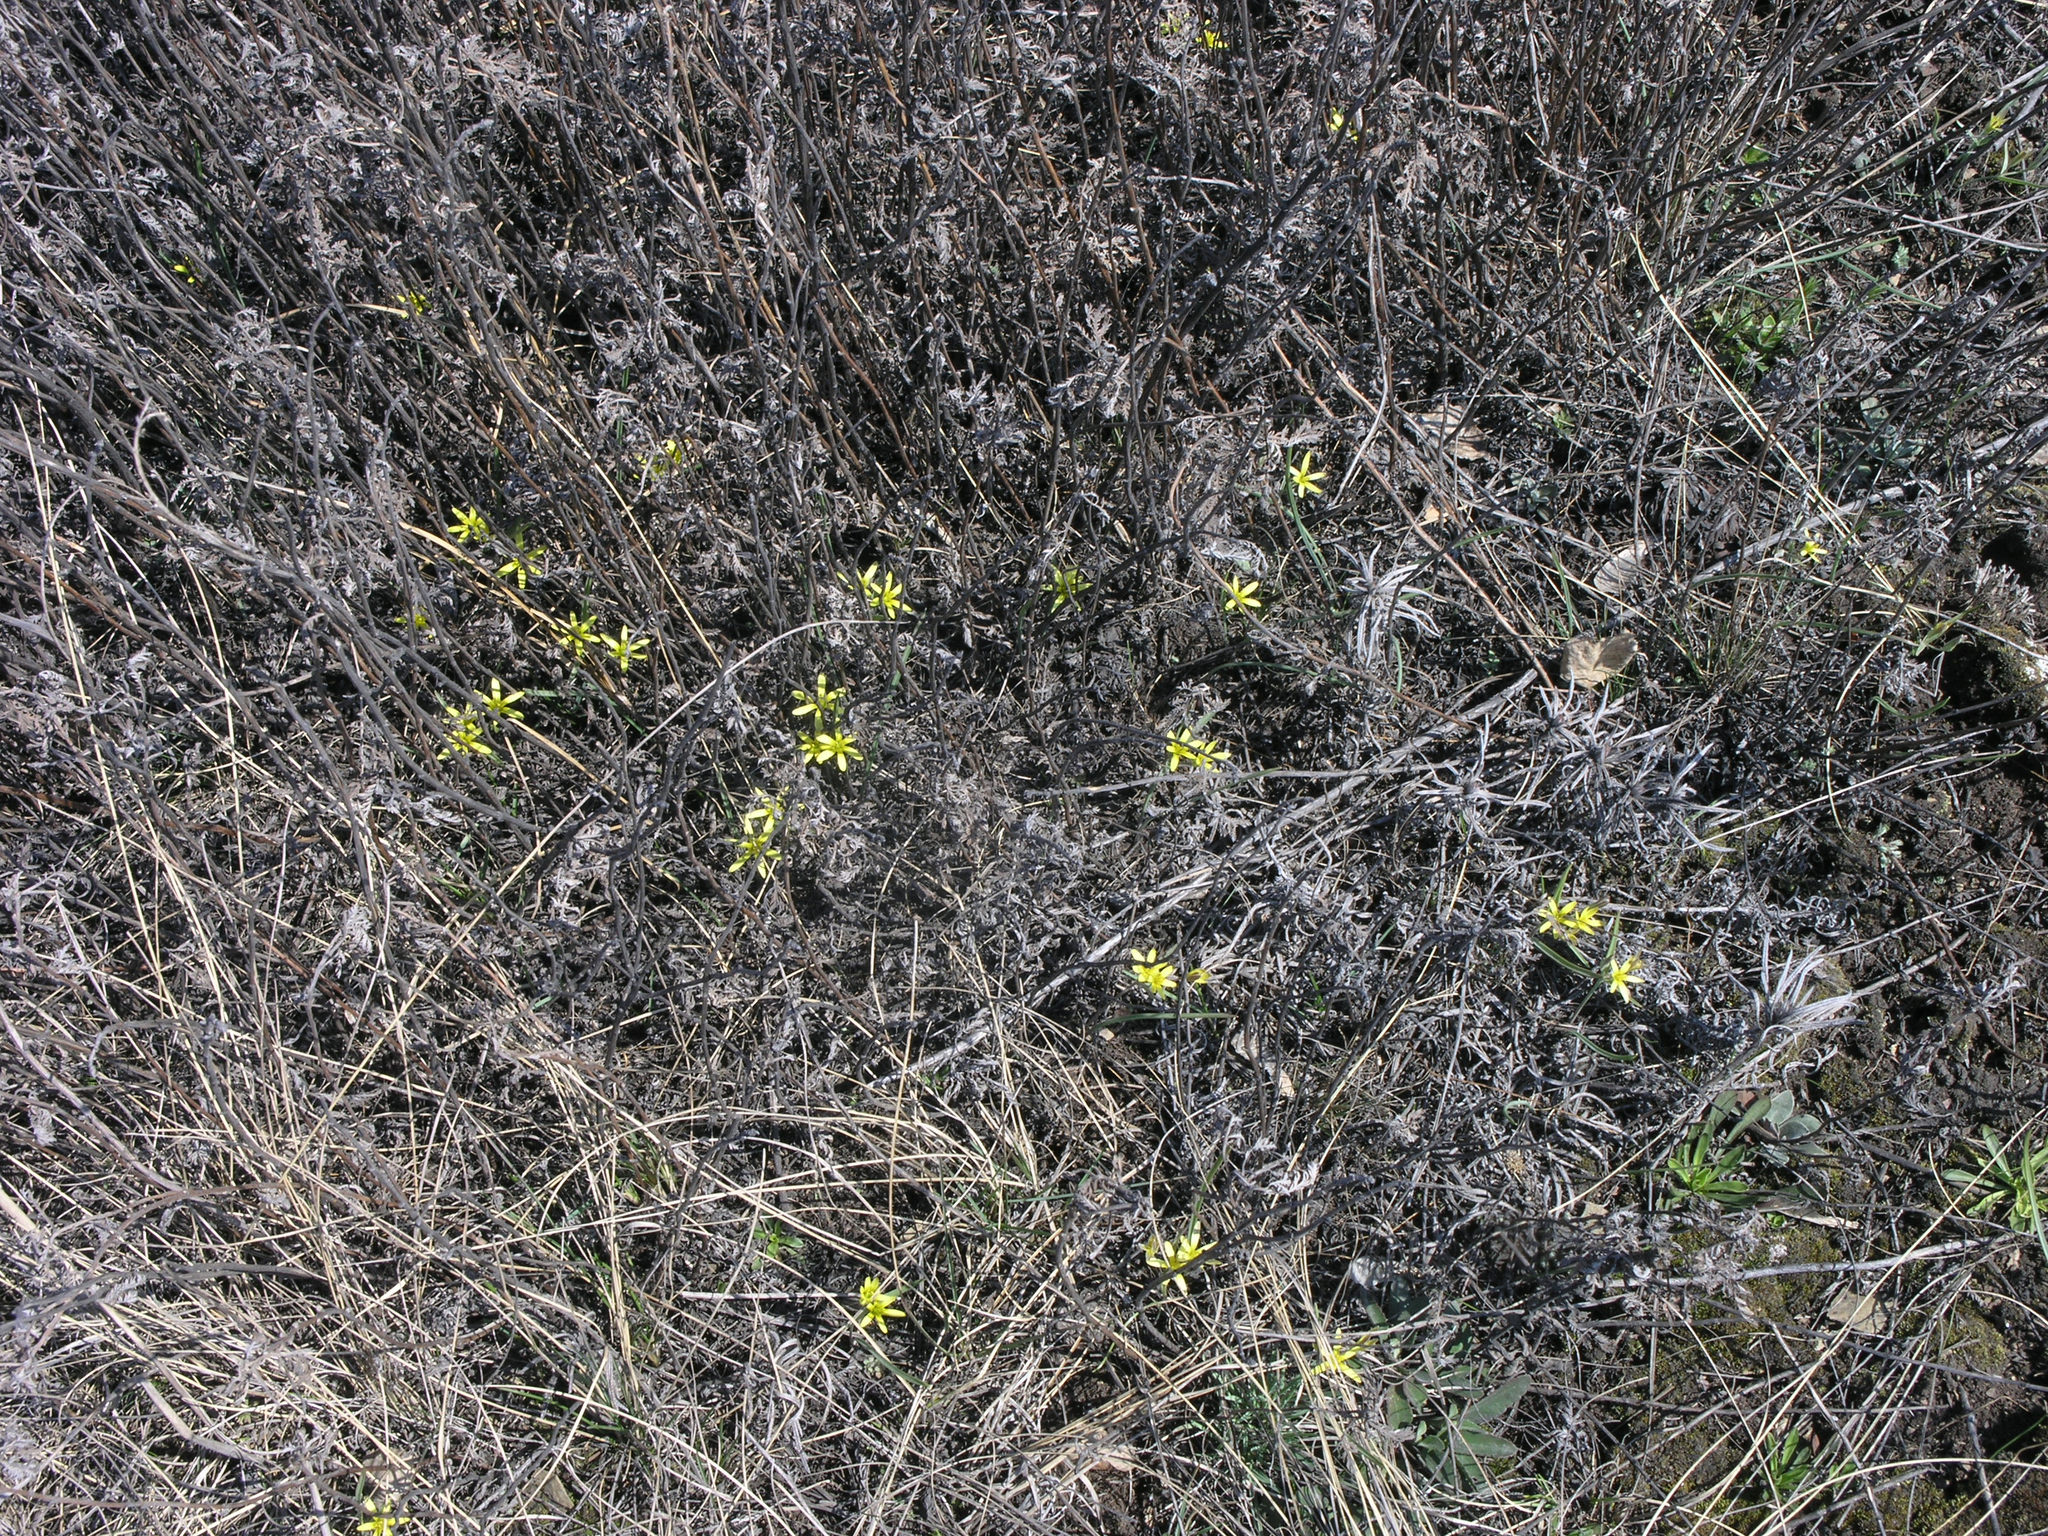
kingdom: Plantae
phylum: Tracheophyta
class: Liliopsida
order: Liliales
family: Liliaceae
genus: Gagea
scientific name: Gagea fedtschenkoana
